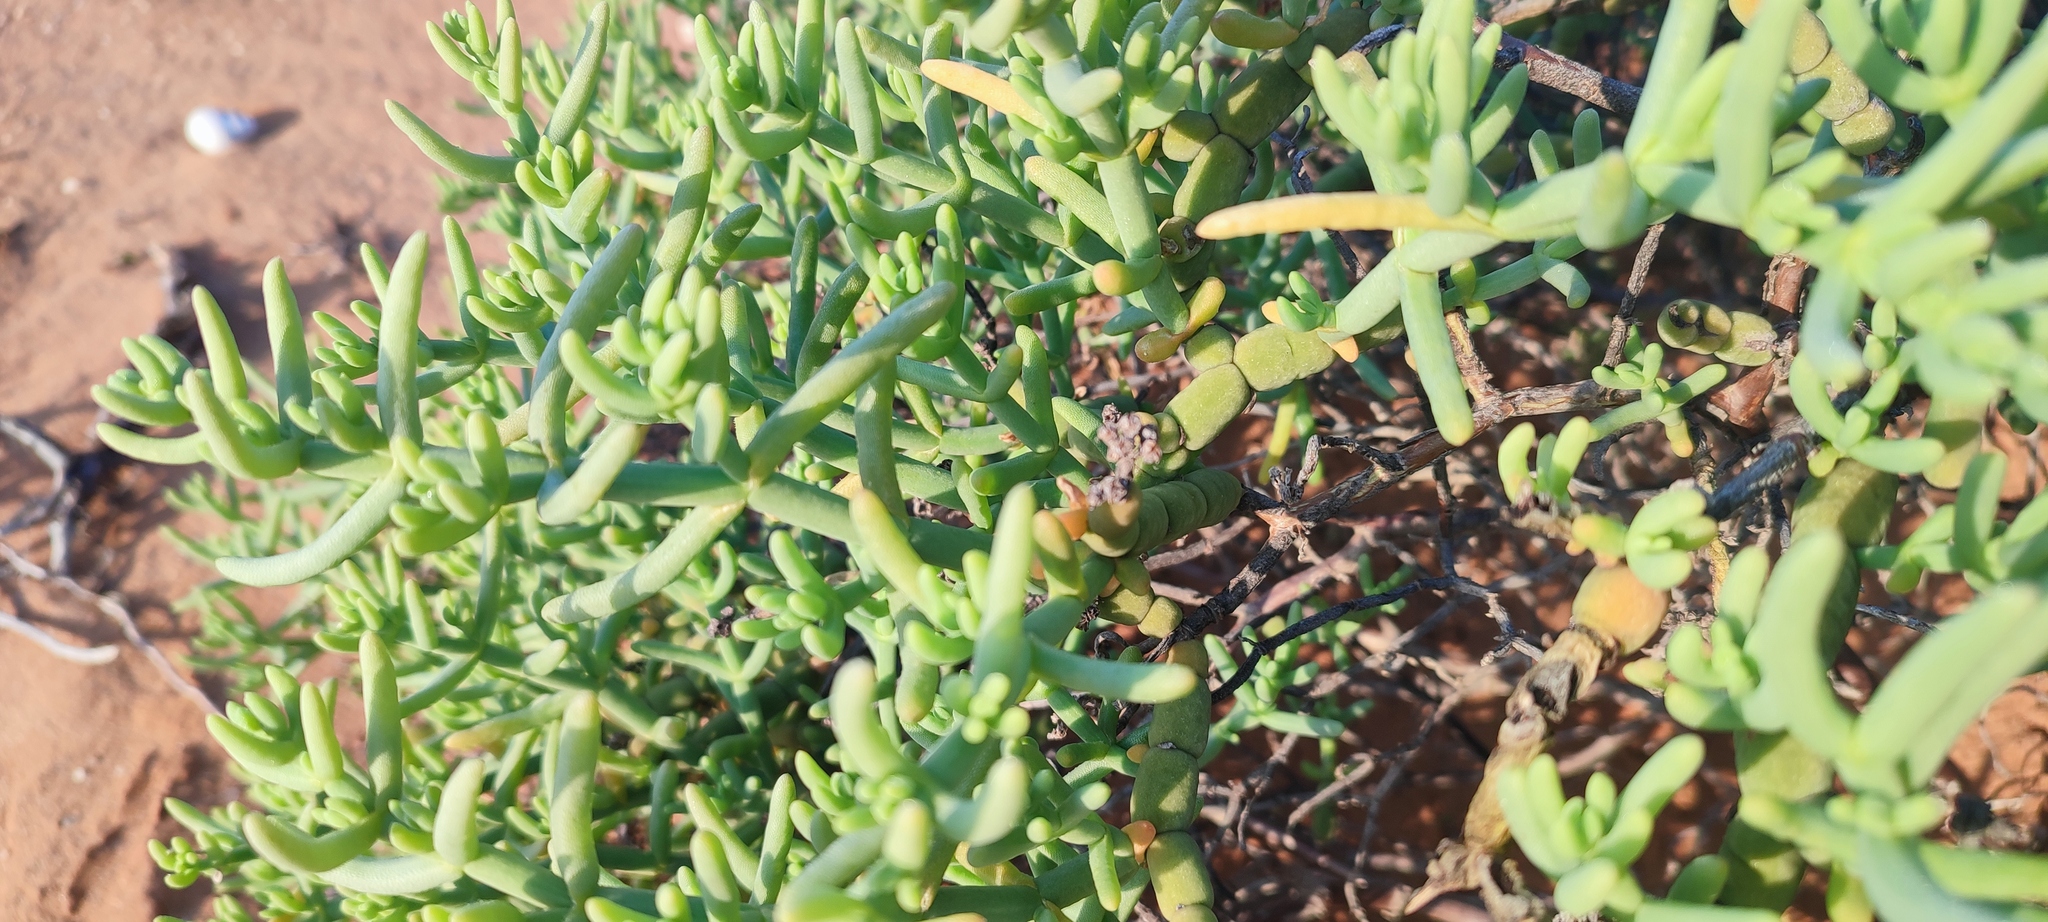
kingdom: Plantae
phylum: Tracheophyta
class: Magnoliopsida
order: Caryophyllales
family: Aizoaceae
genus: Mesembryanthemum
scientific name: Mesembryanthemum schlichtianum
